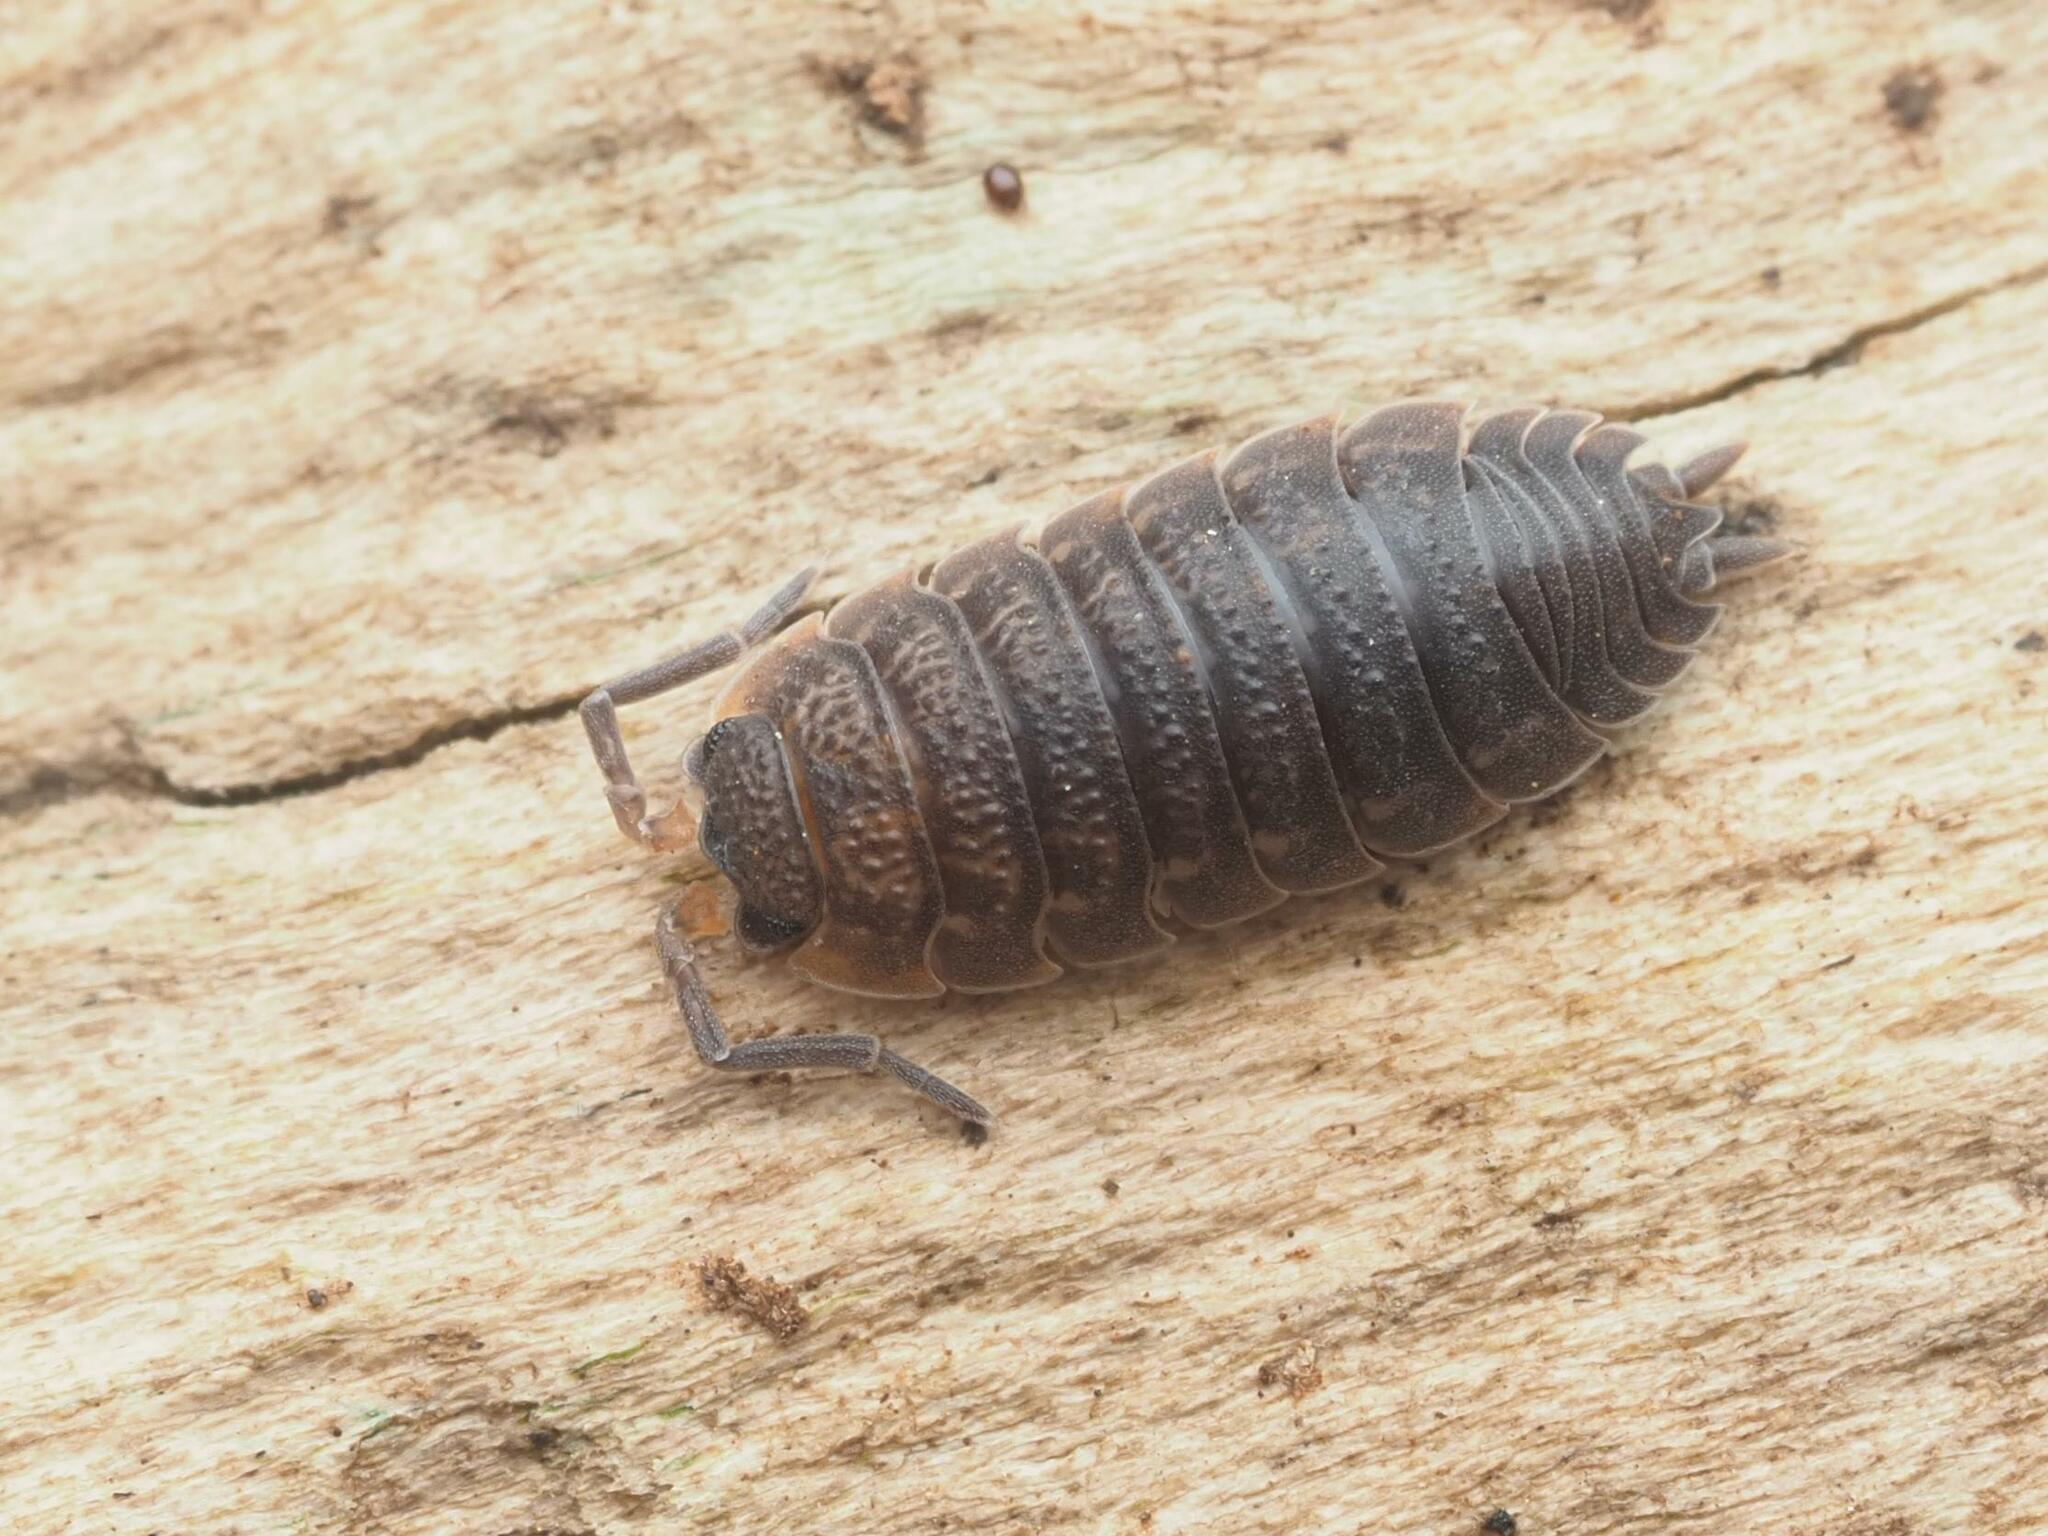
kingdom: Animalia
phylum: Arthropoda
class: Malacostraca
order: Isopoda
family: Porcellionidae
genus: Porcellio
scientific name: Porcellio scaber
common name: Common rough woodlouse
